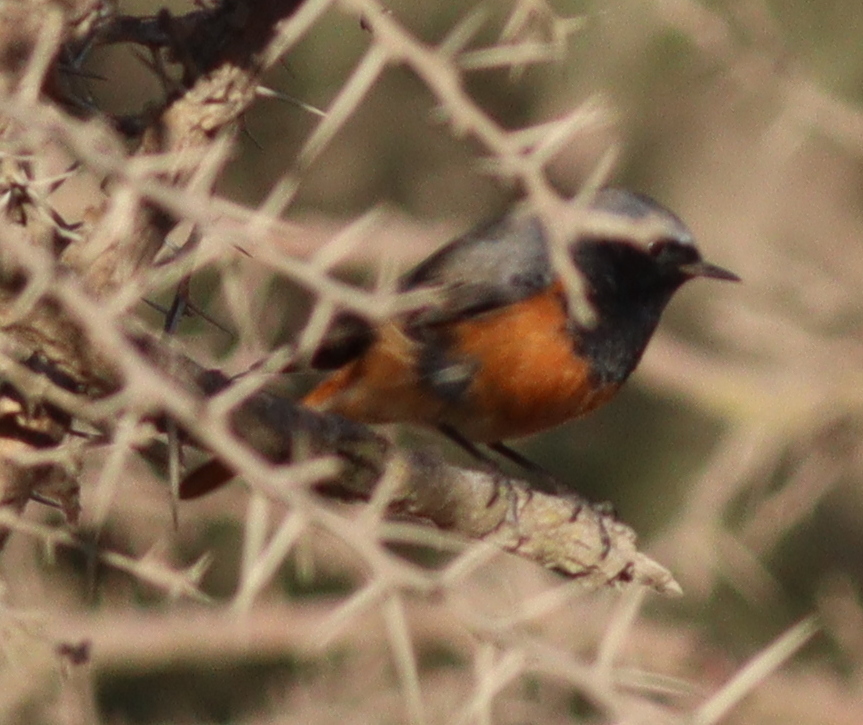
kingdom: Animalia
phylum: Chordata
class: Aves
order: Passeriformes
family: Muscicapidae
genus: Phoenicurus
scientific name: Phoenicurus ochruros
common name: Black redstart
